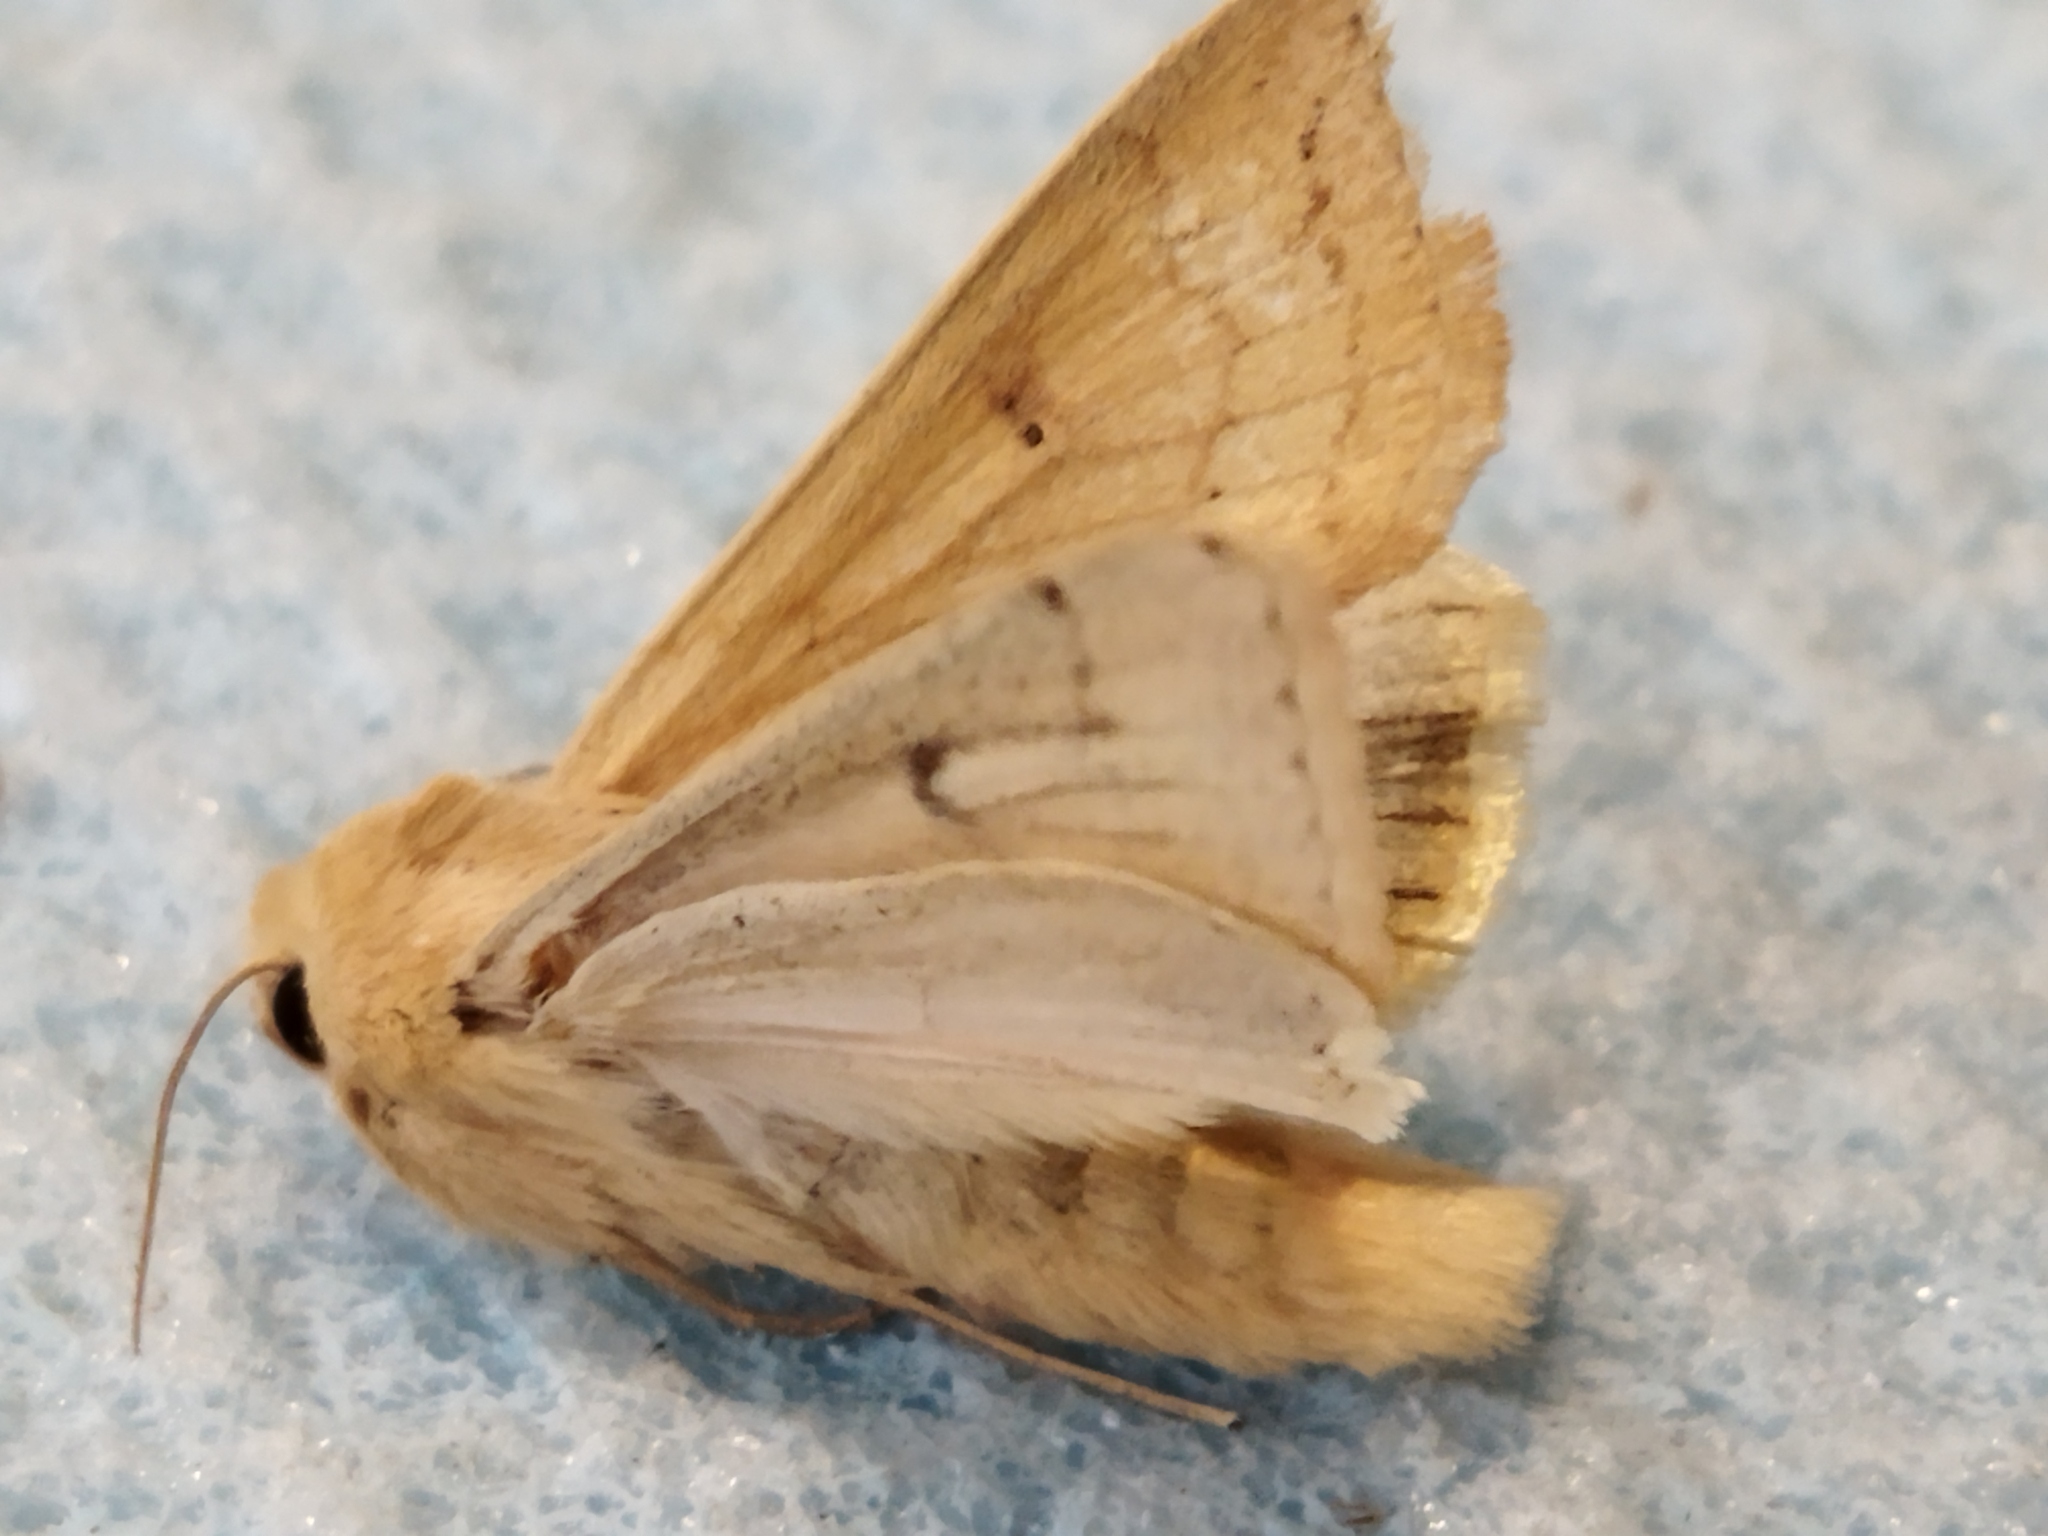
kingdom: Animalia
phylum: Arthropoda
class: Insecta
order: Lepidoptera
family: Noctuidae
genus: Mythimna
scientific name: Mythimna vitellina
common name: Delicate
